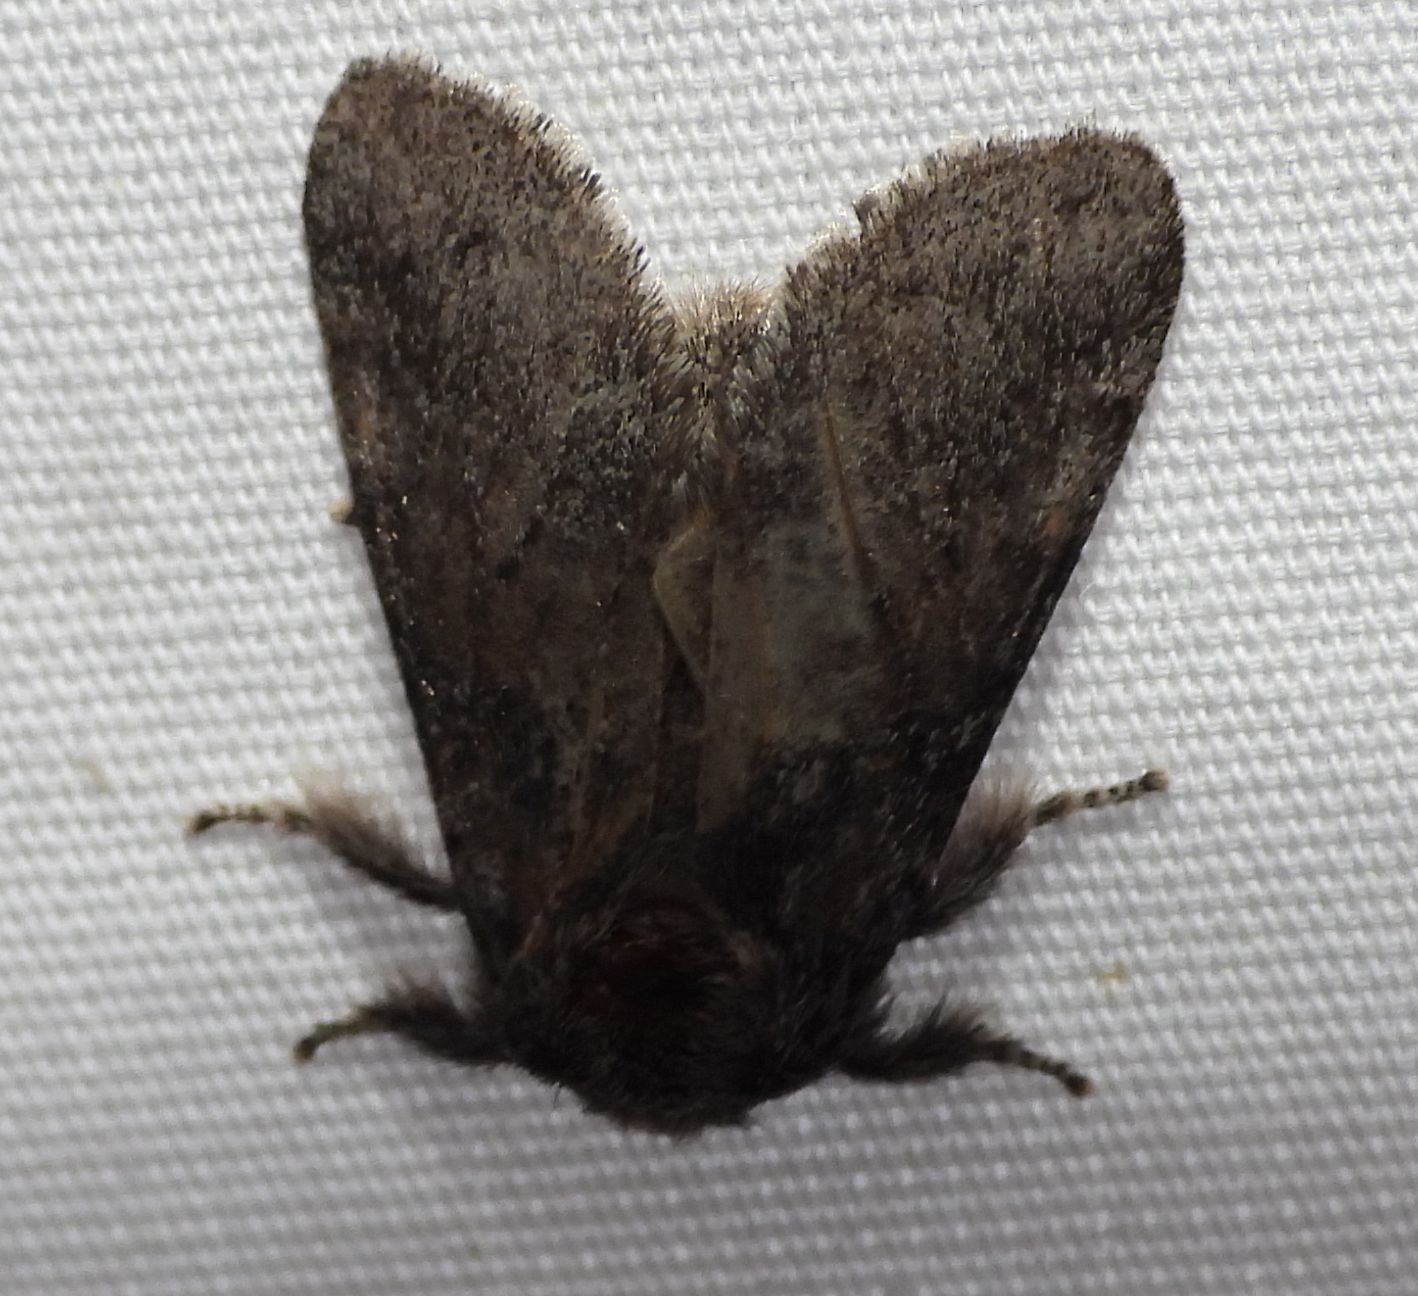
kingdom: Animalia
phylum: Arthropoda
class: Insecta
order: Lepidoptera
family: Notodontidae
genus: Gluphisia
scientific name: Gluphisia septentrionis
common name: Common gluphisia
